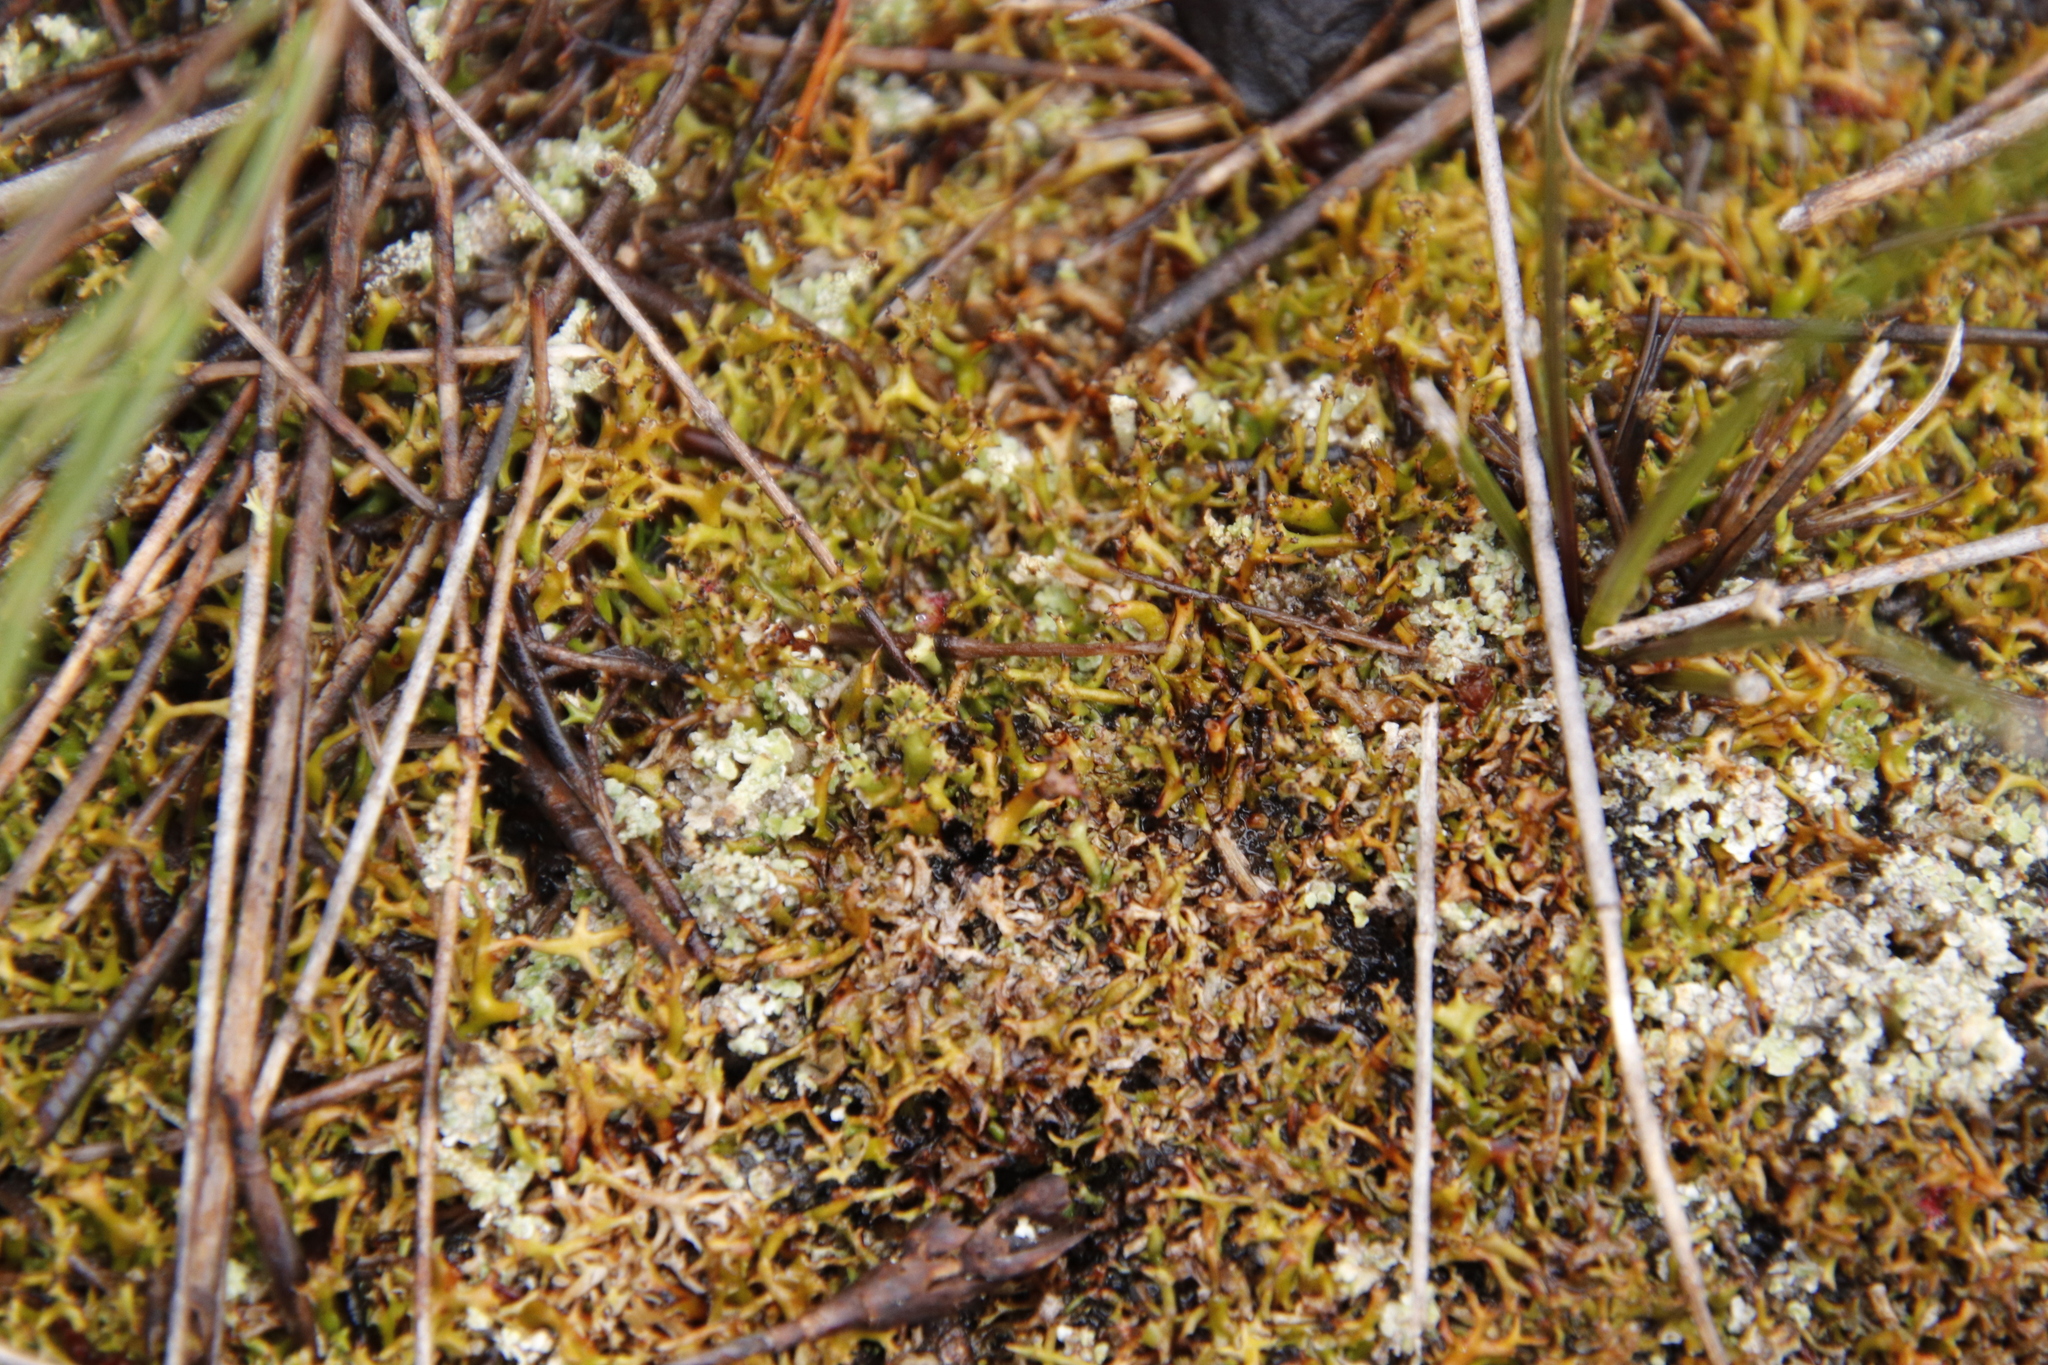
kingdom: Fungi
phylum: Ascomycota
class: Lecanoromycetes
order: Lecanorales
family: Cladoniaceae
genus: Cladia
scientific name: Cladia aggregata
